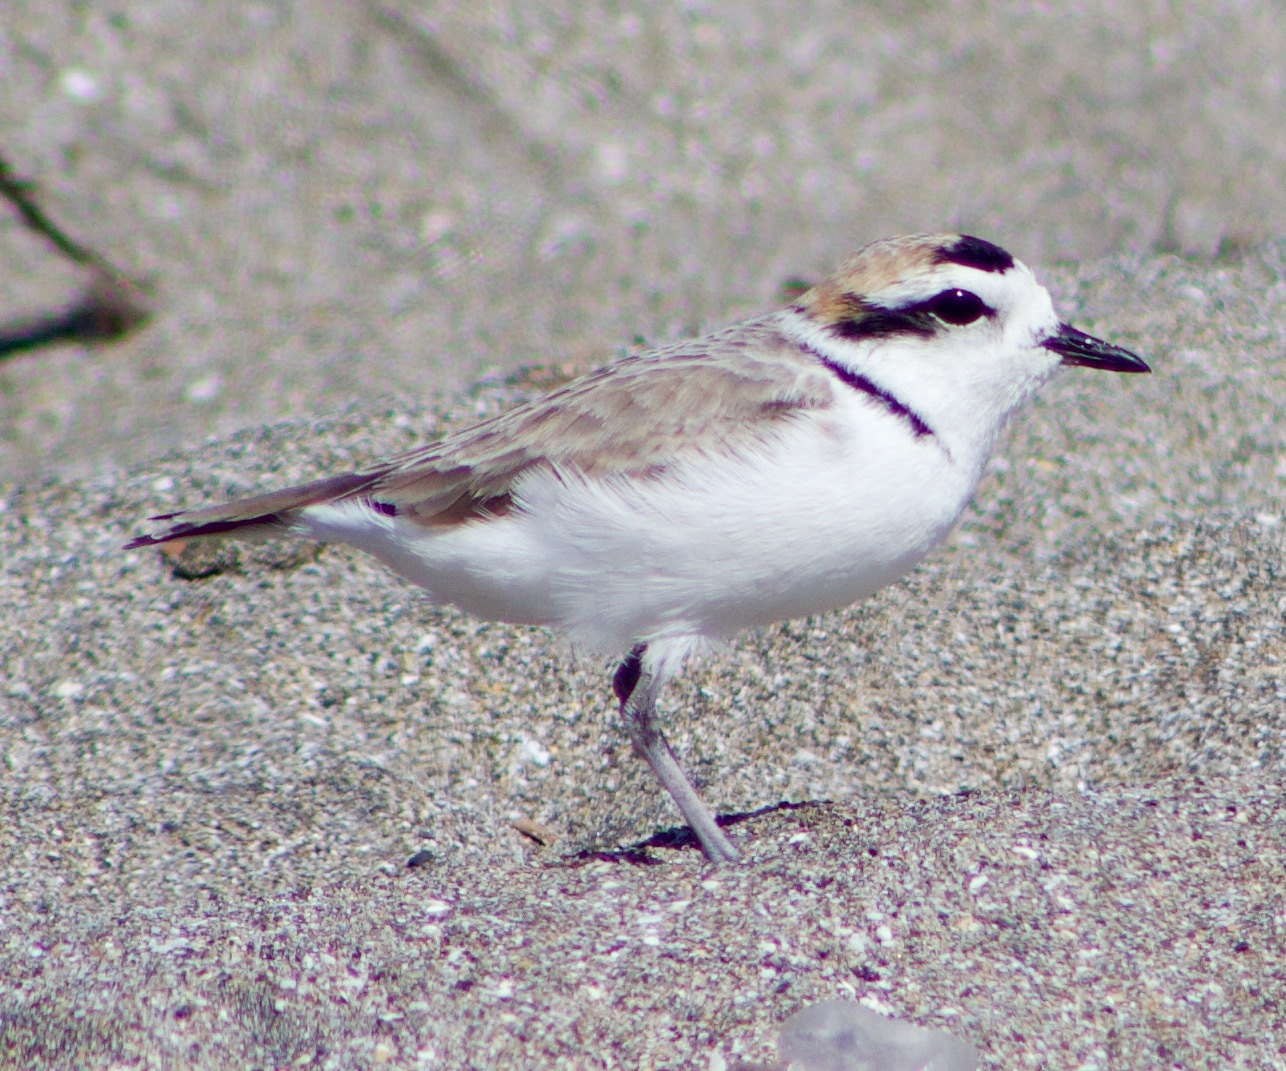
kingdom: Animalia
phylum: Chordata
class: Aves
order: Charadriiformes
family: Charadriidae
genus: Anarhynchus
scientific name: Anarhynchus
